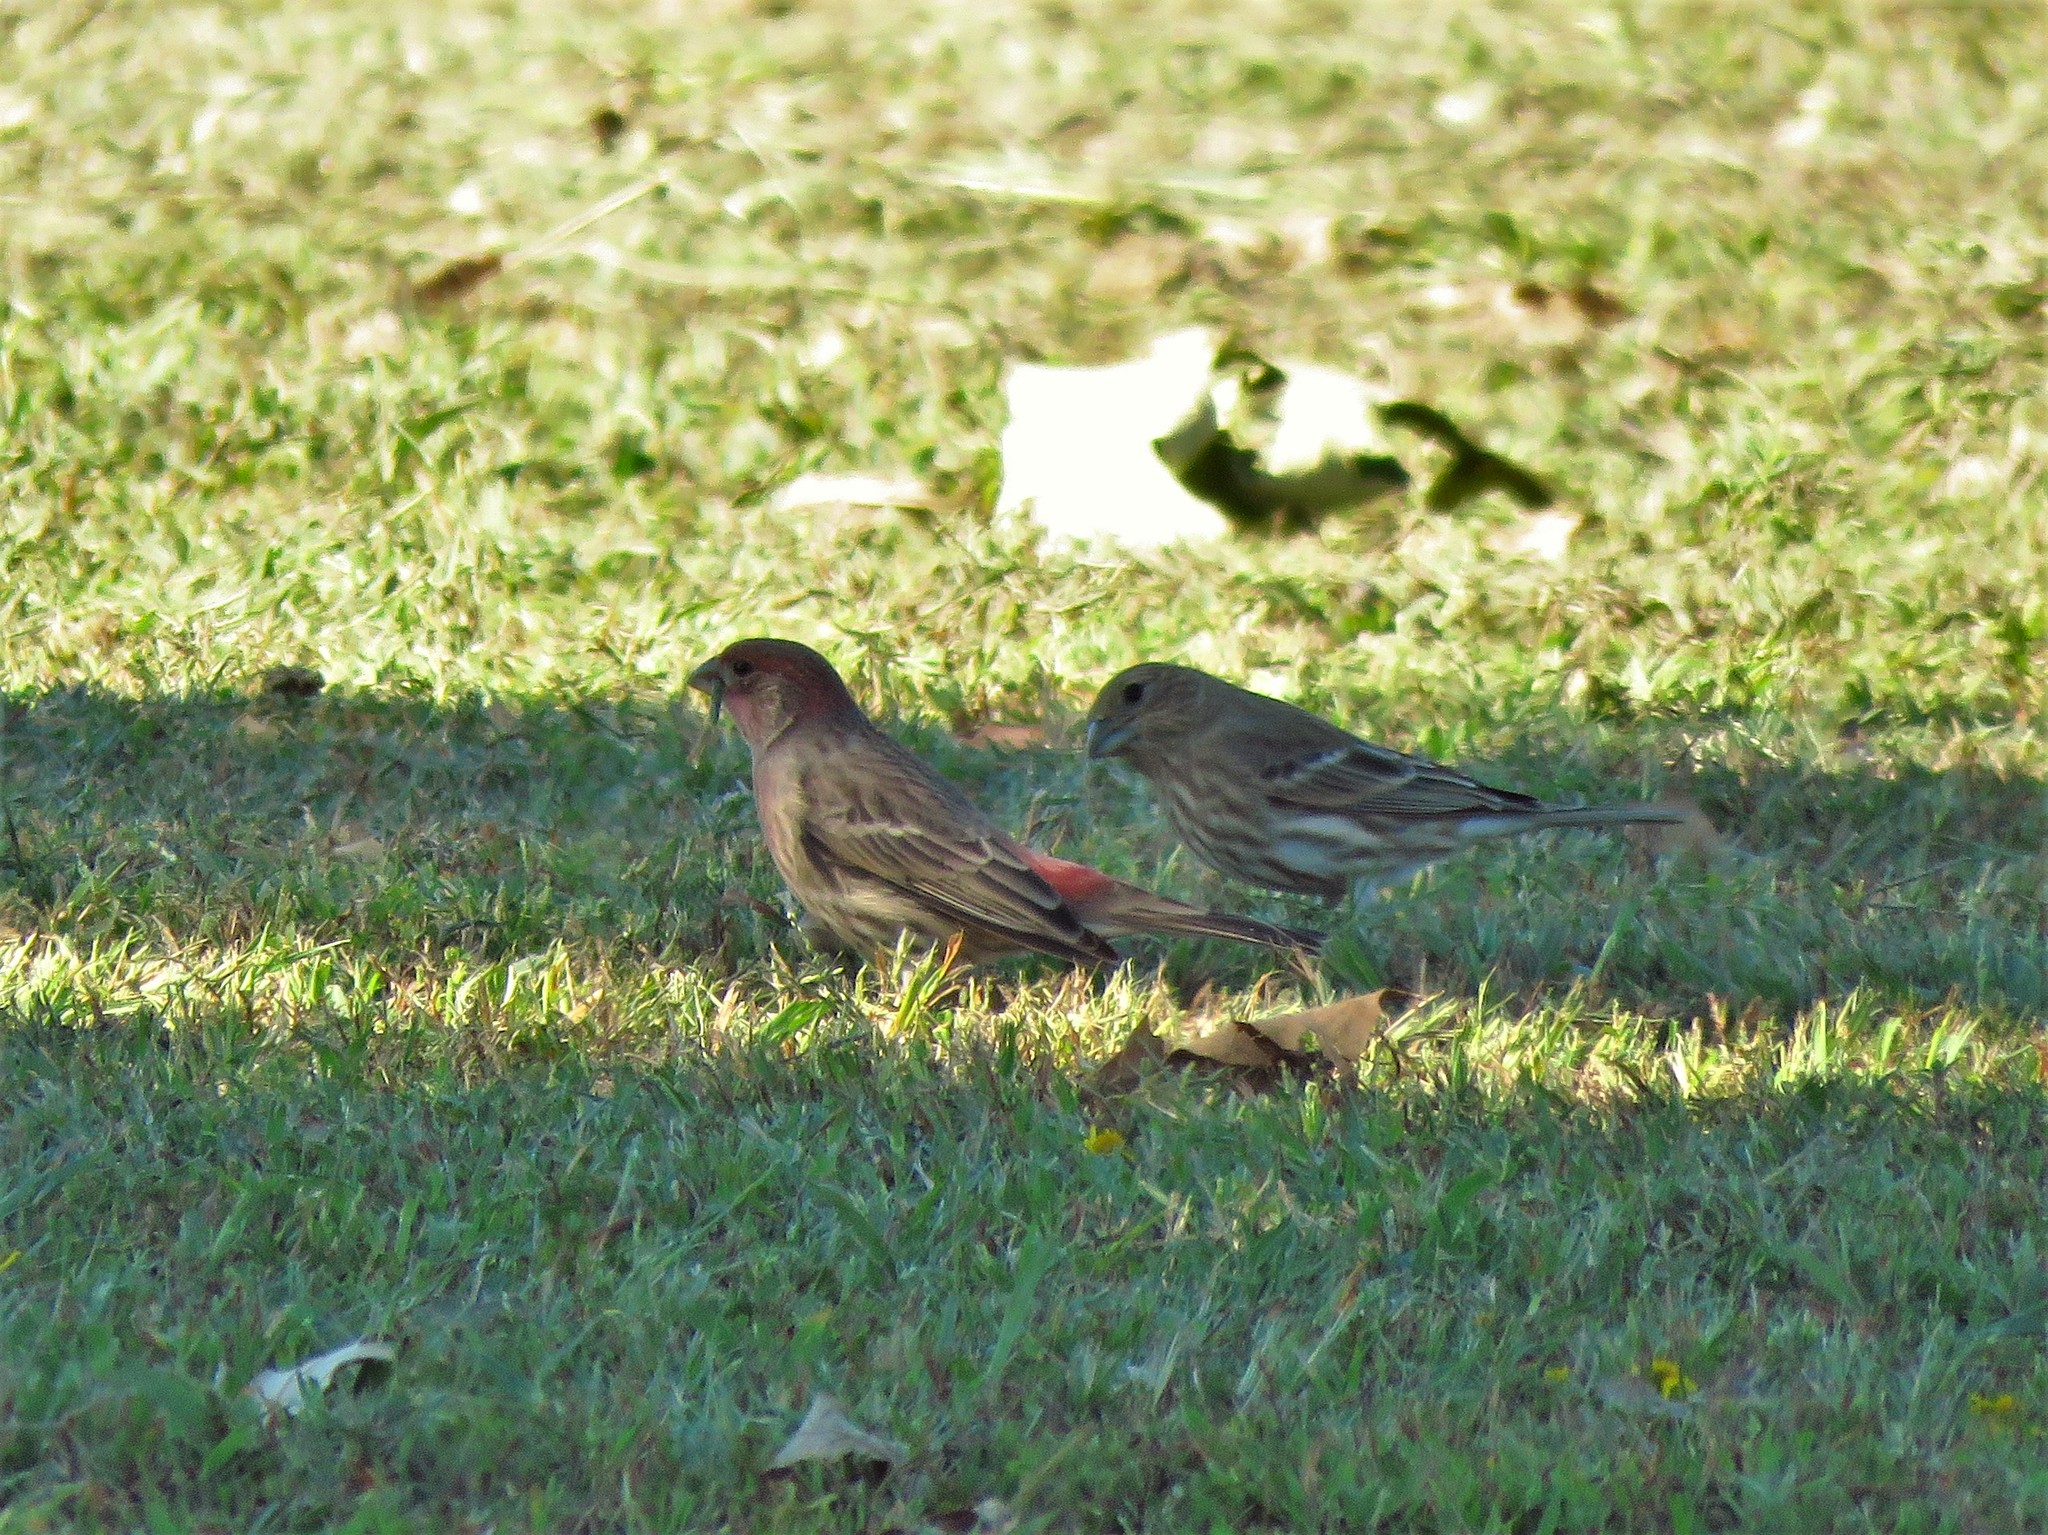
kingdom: Animalia
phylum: Chordata
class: Aves
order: Passeriformes
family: Fringillidae
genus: Haemorhous
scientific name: Haemorhous mexicanus
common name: House finch
